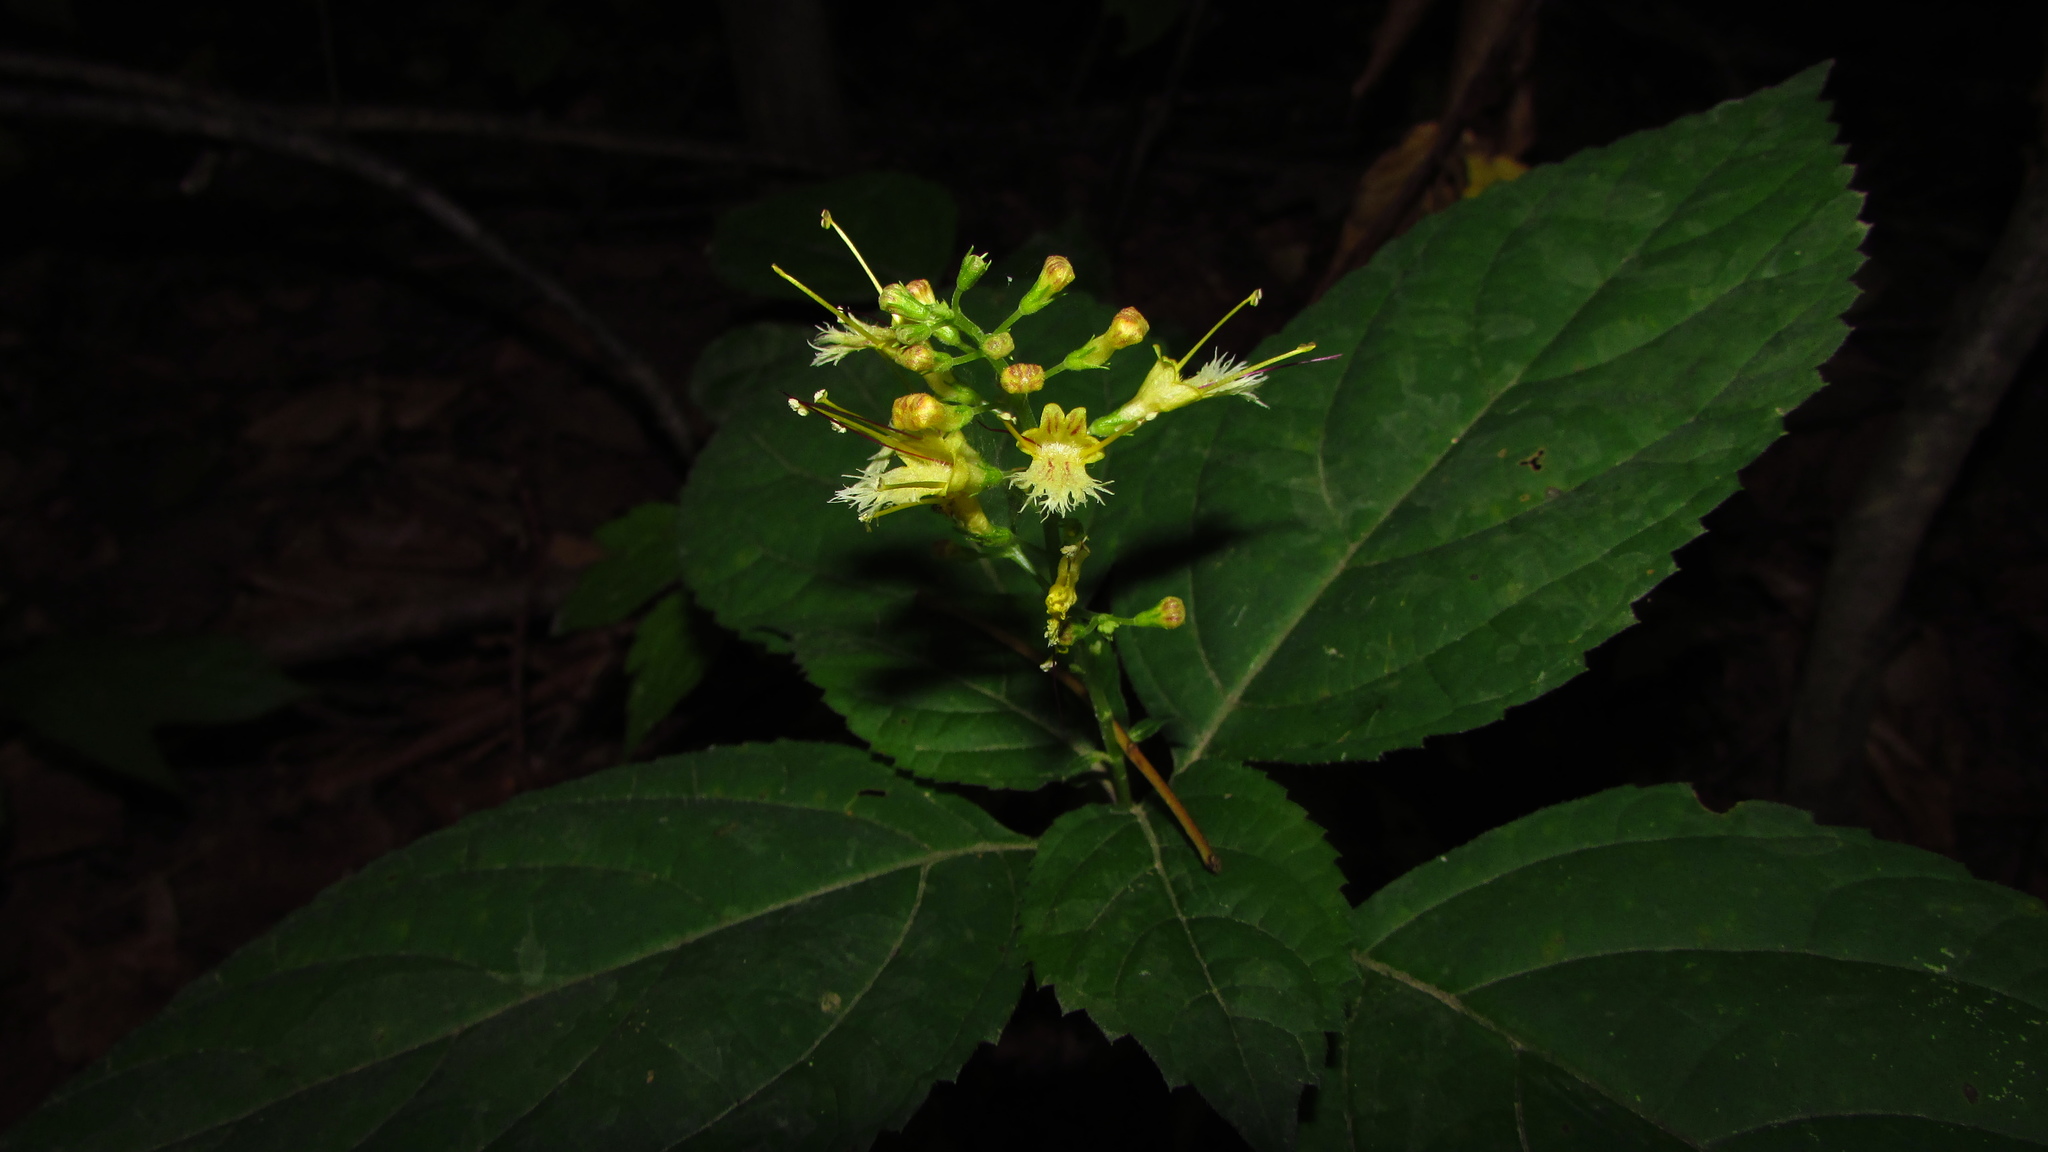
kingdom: Plantae
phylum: Tracheophyta
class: Magnoliopsida
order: Lamiales
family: Lamiaceae
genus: Collinsonia
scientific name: Collinsonia canadensis
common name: Northern horsebalm
